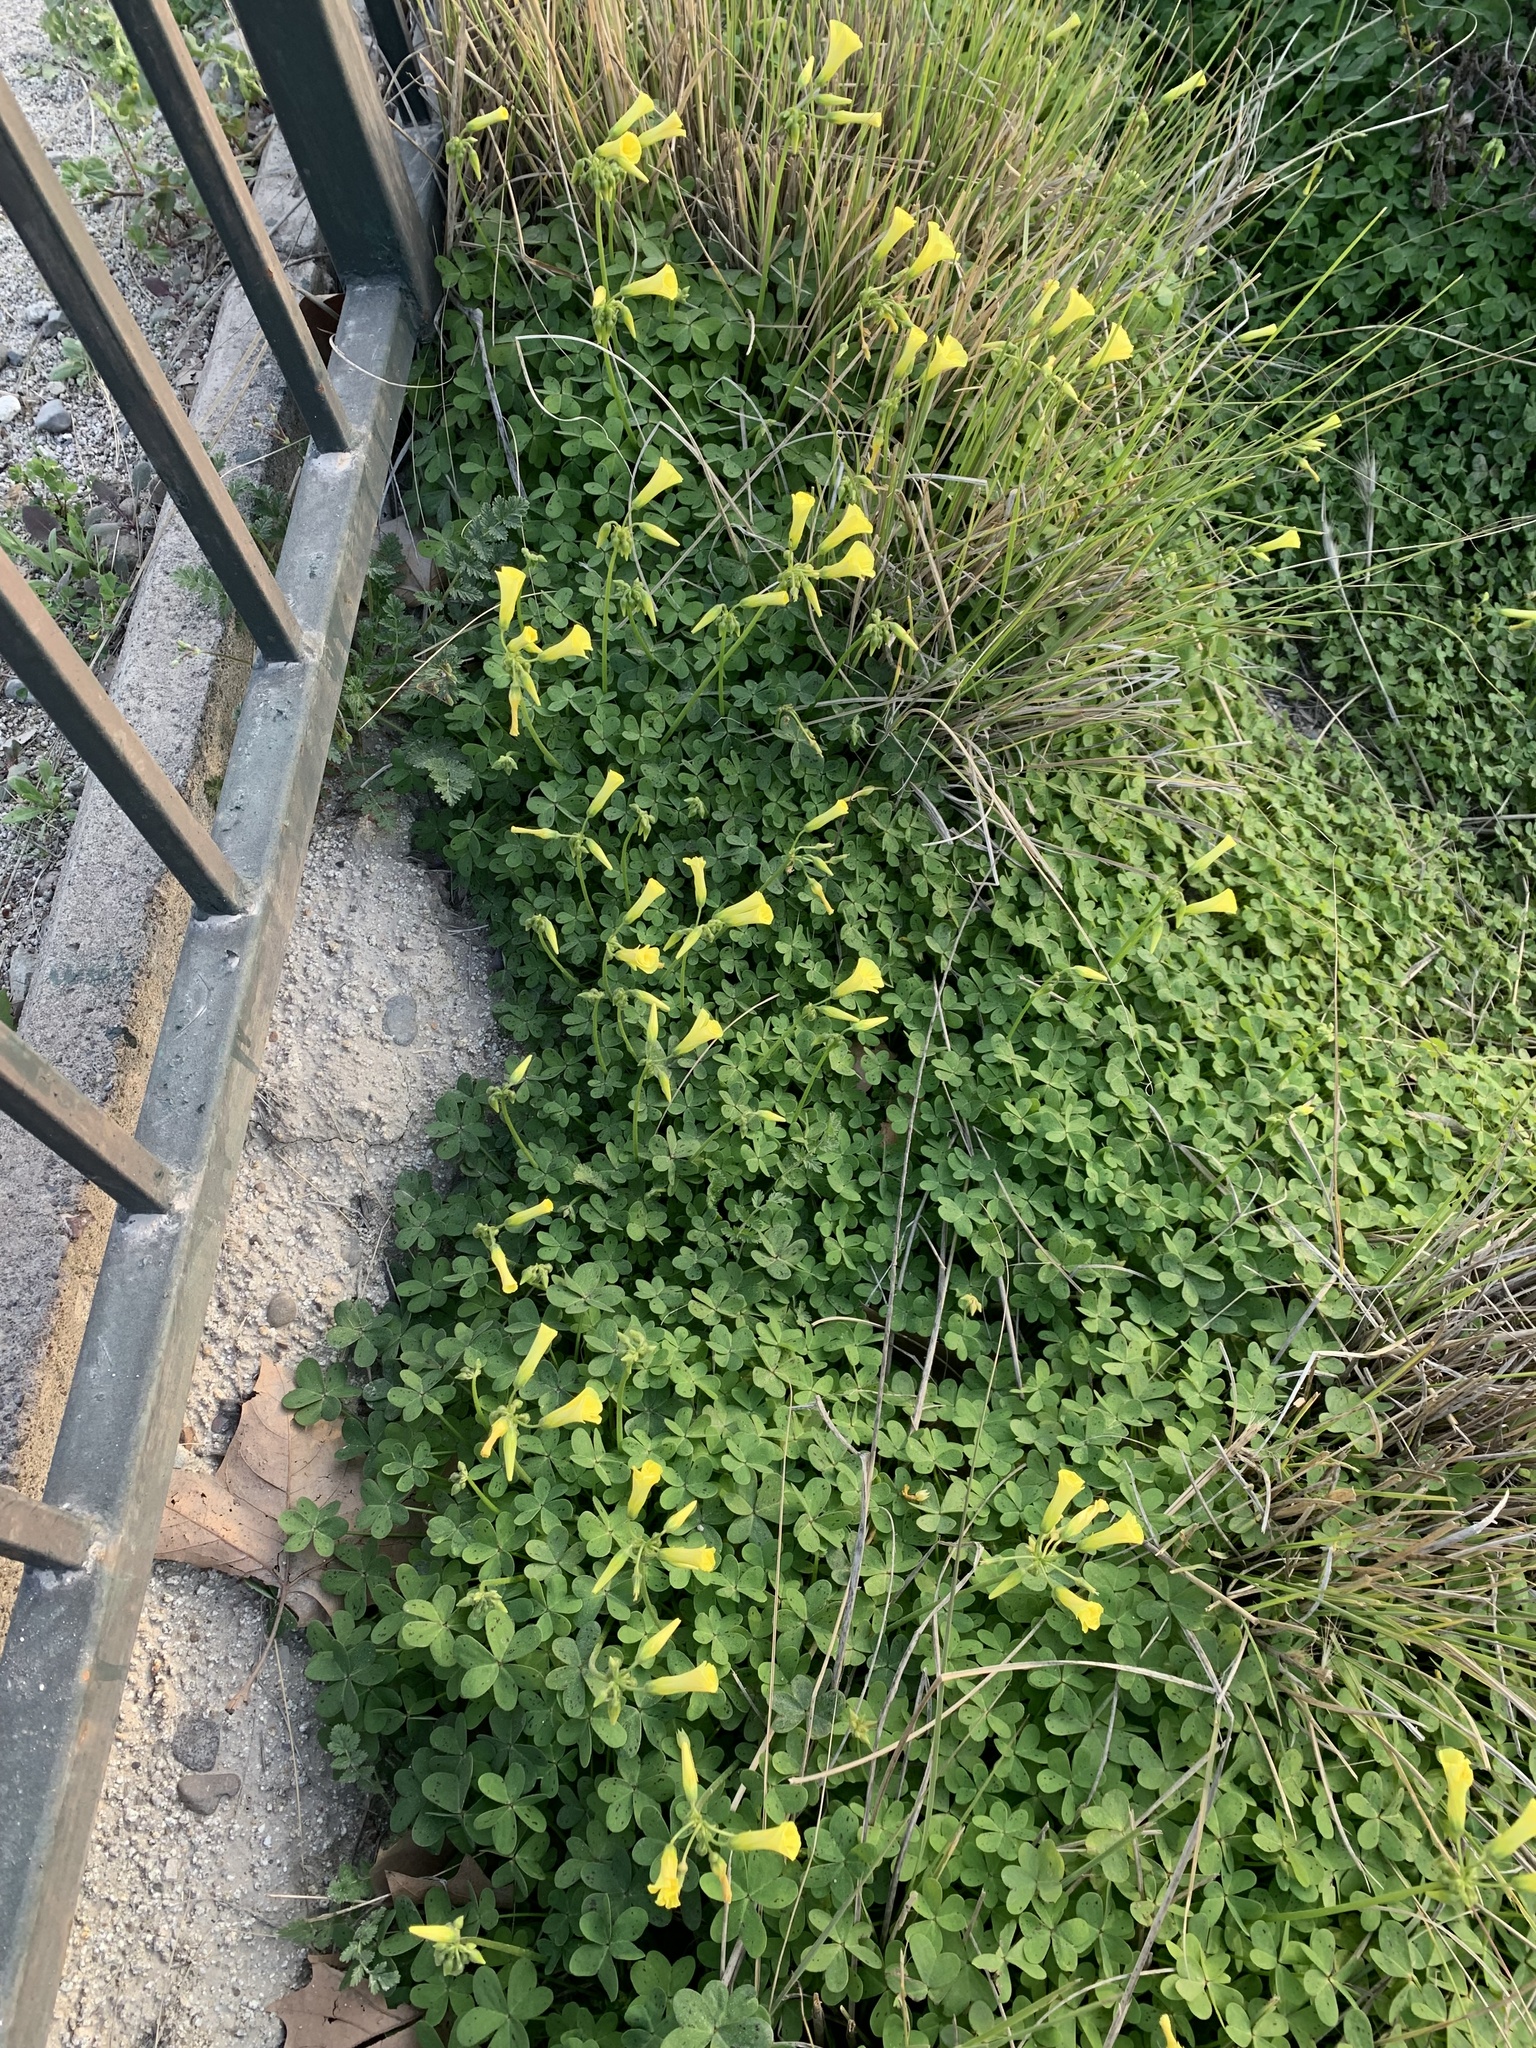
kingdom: Plantae
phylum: Tracheophyta
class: Magnoliopsida
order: Oxalidales
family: Oxalidaceae
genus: Oxalis
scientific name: Oxalis pes-caprae
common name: Bermuda-buttercup
